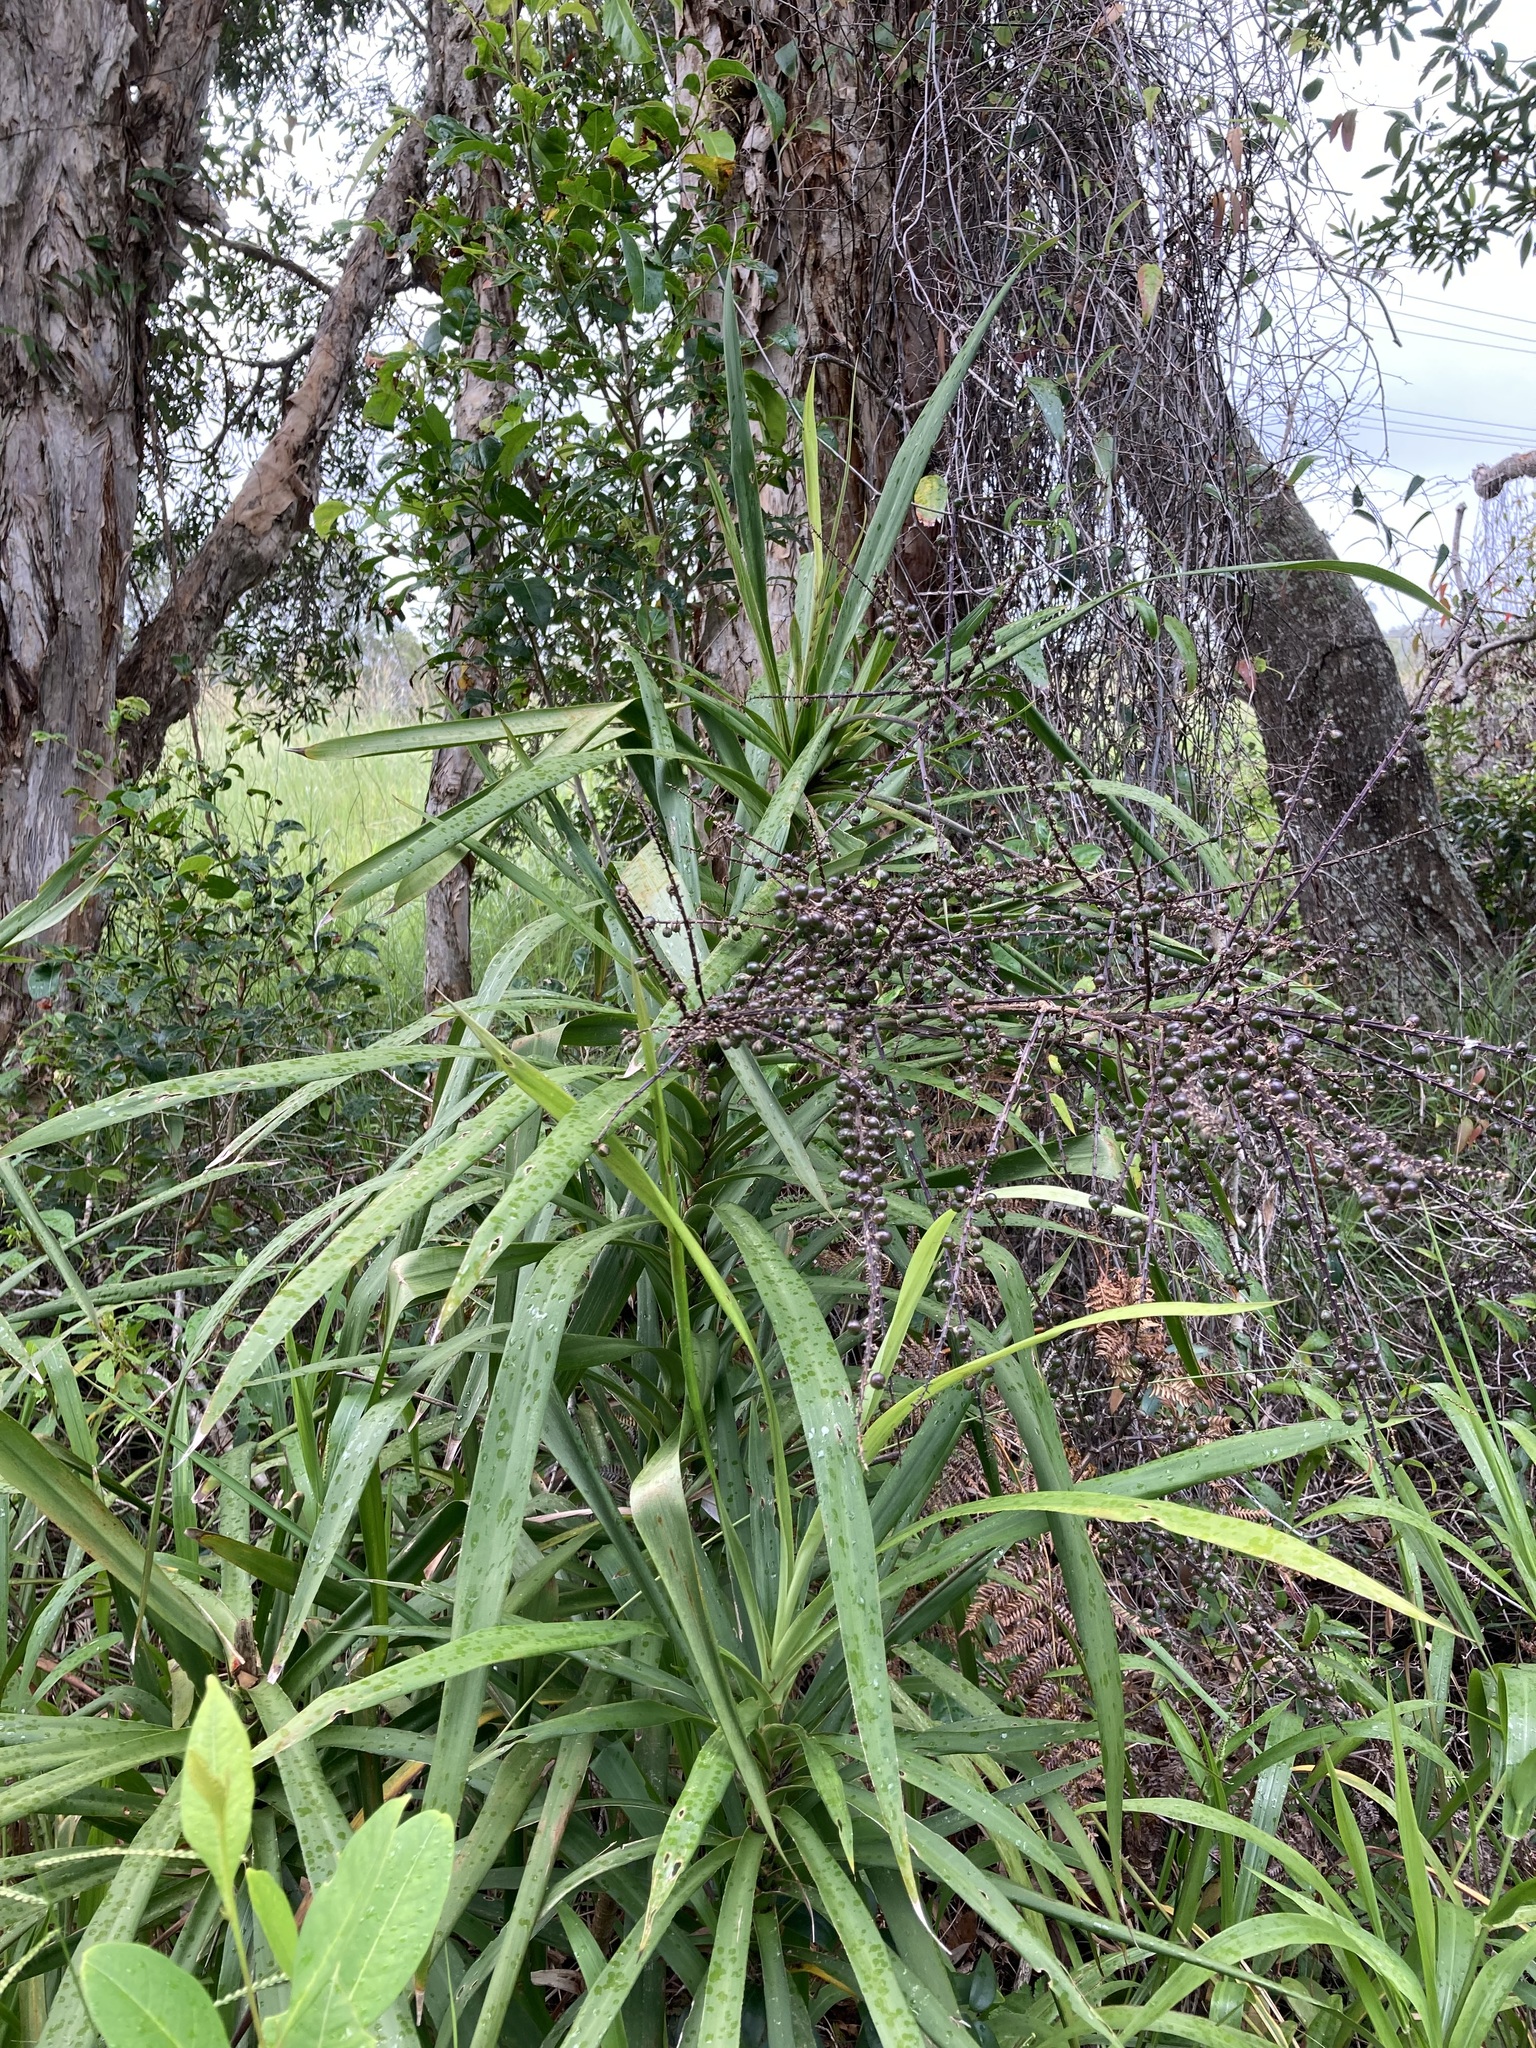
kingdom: Plantae
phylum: Tracheophyta
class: Liliopsida
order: Asparagales
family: Asparagaceae
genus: Cordyline
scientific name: Cordyline stricta
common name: Narrow-leaf palm-lily
